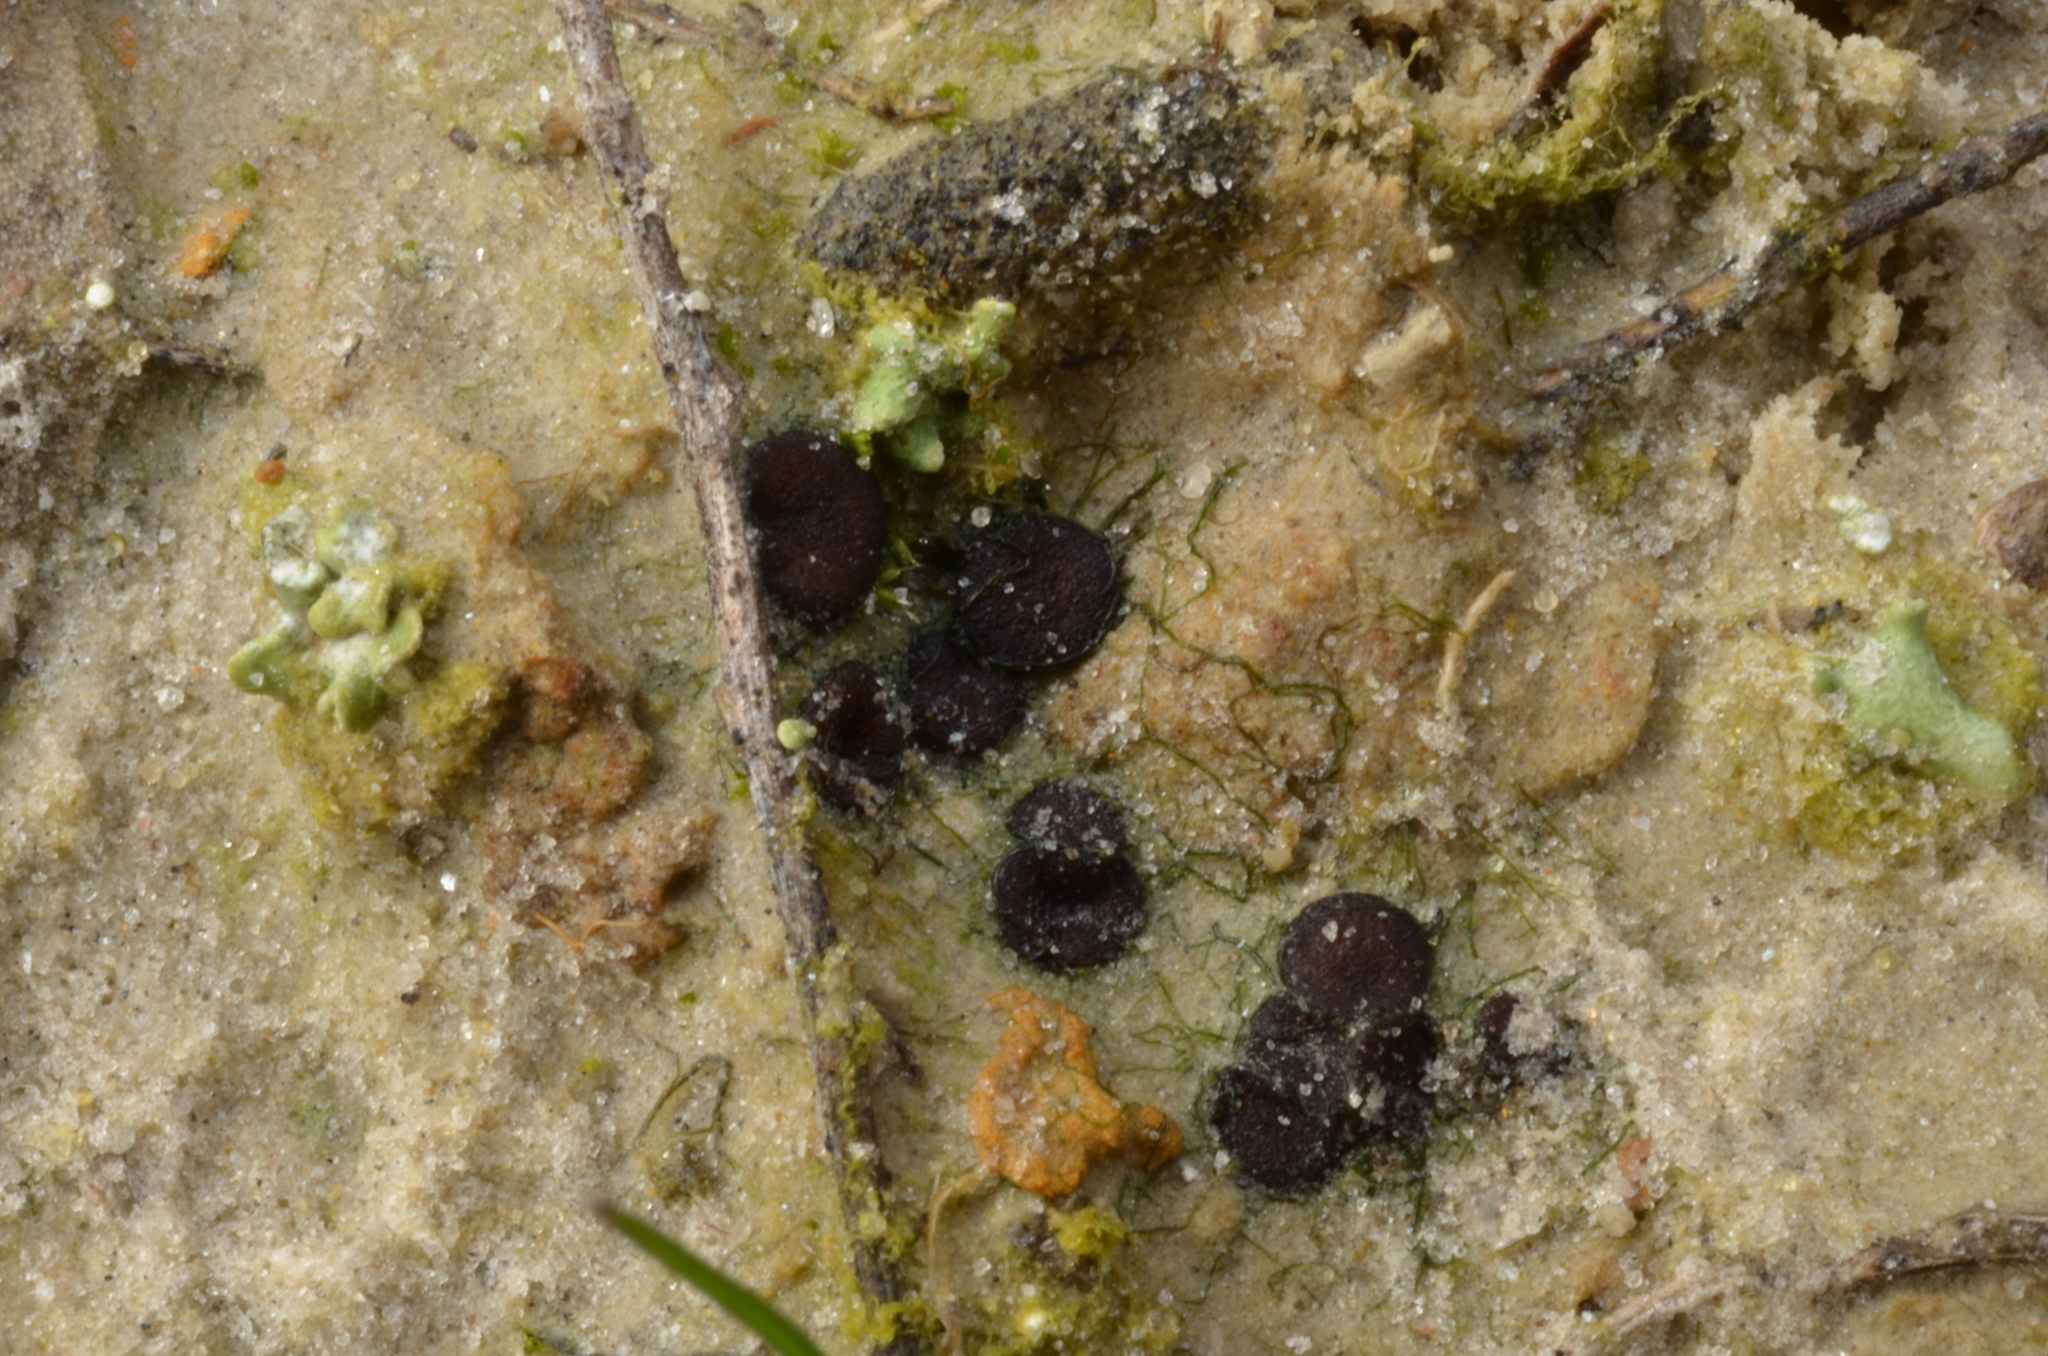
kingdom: Fungi
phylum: Ascomycota
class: Pezizomycetes
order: Pezizales
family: Ascobolaceae
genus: Ascobolus
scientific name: Ascobolus geophilus
